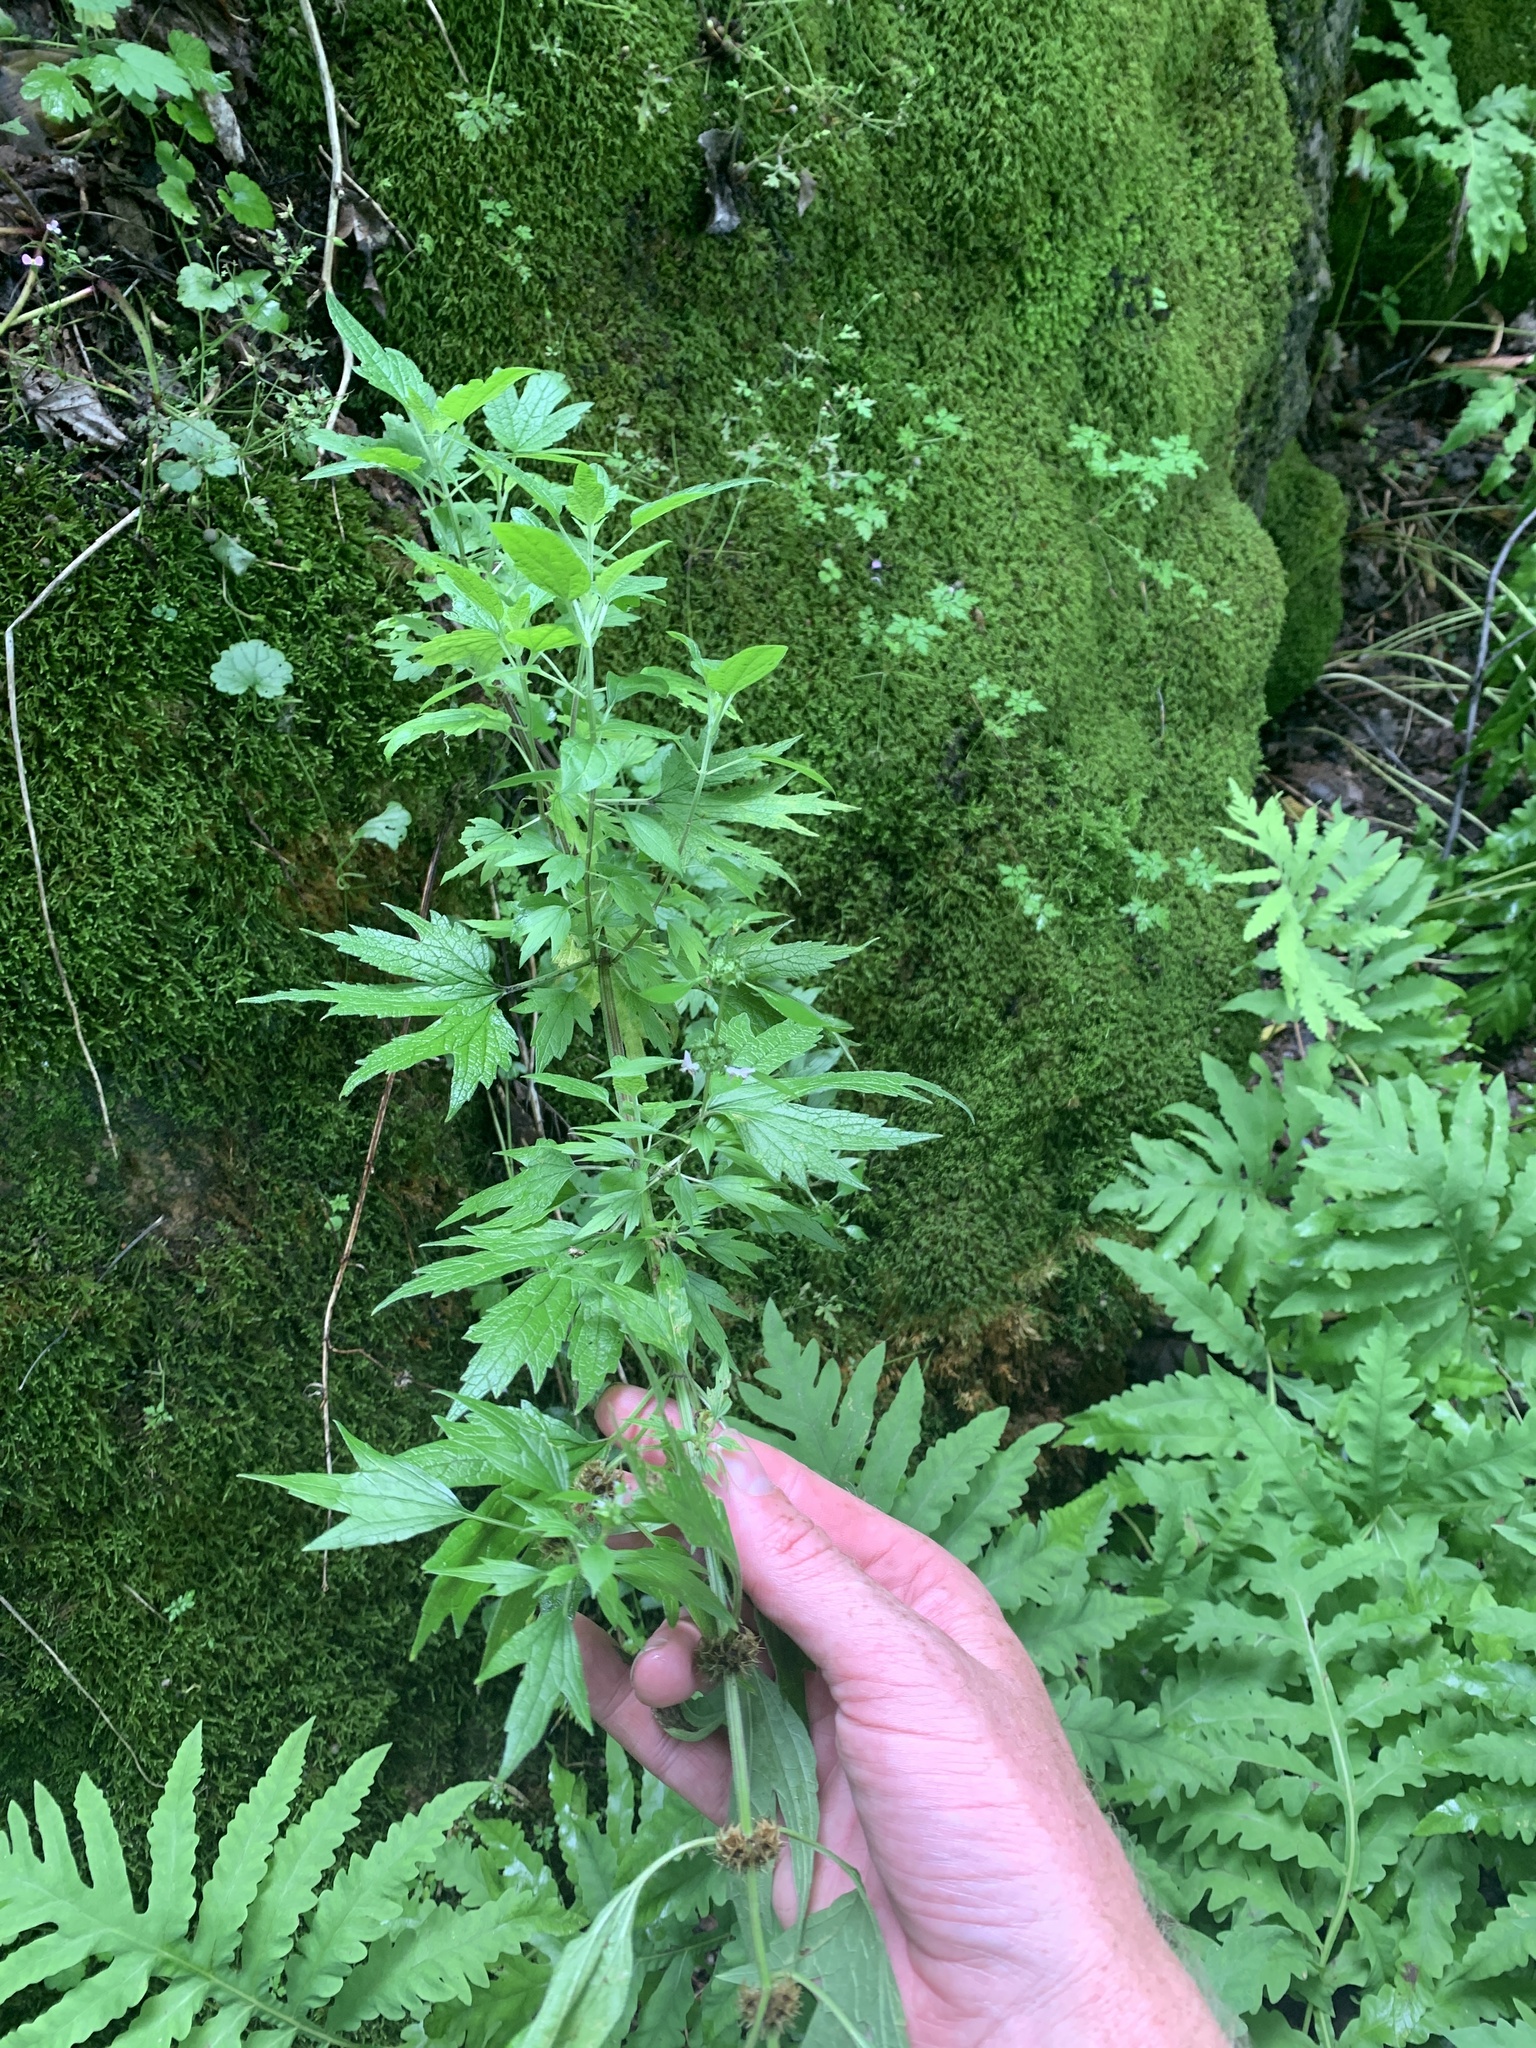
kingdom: Plantae
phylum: Tracheophyta
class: Magnoliopsida
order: Lamiales
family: Lamiaceae
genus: Leonurus
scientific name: Leonurus cardiaca
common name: Motherwort
